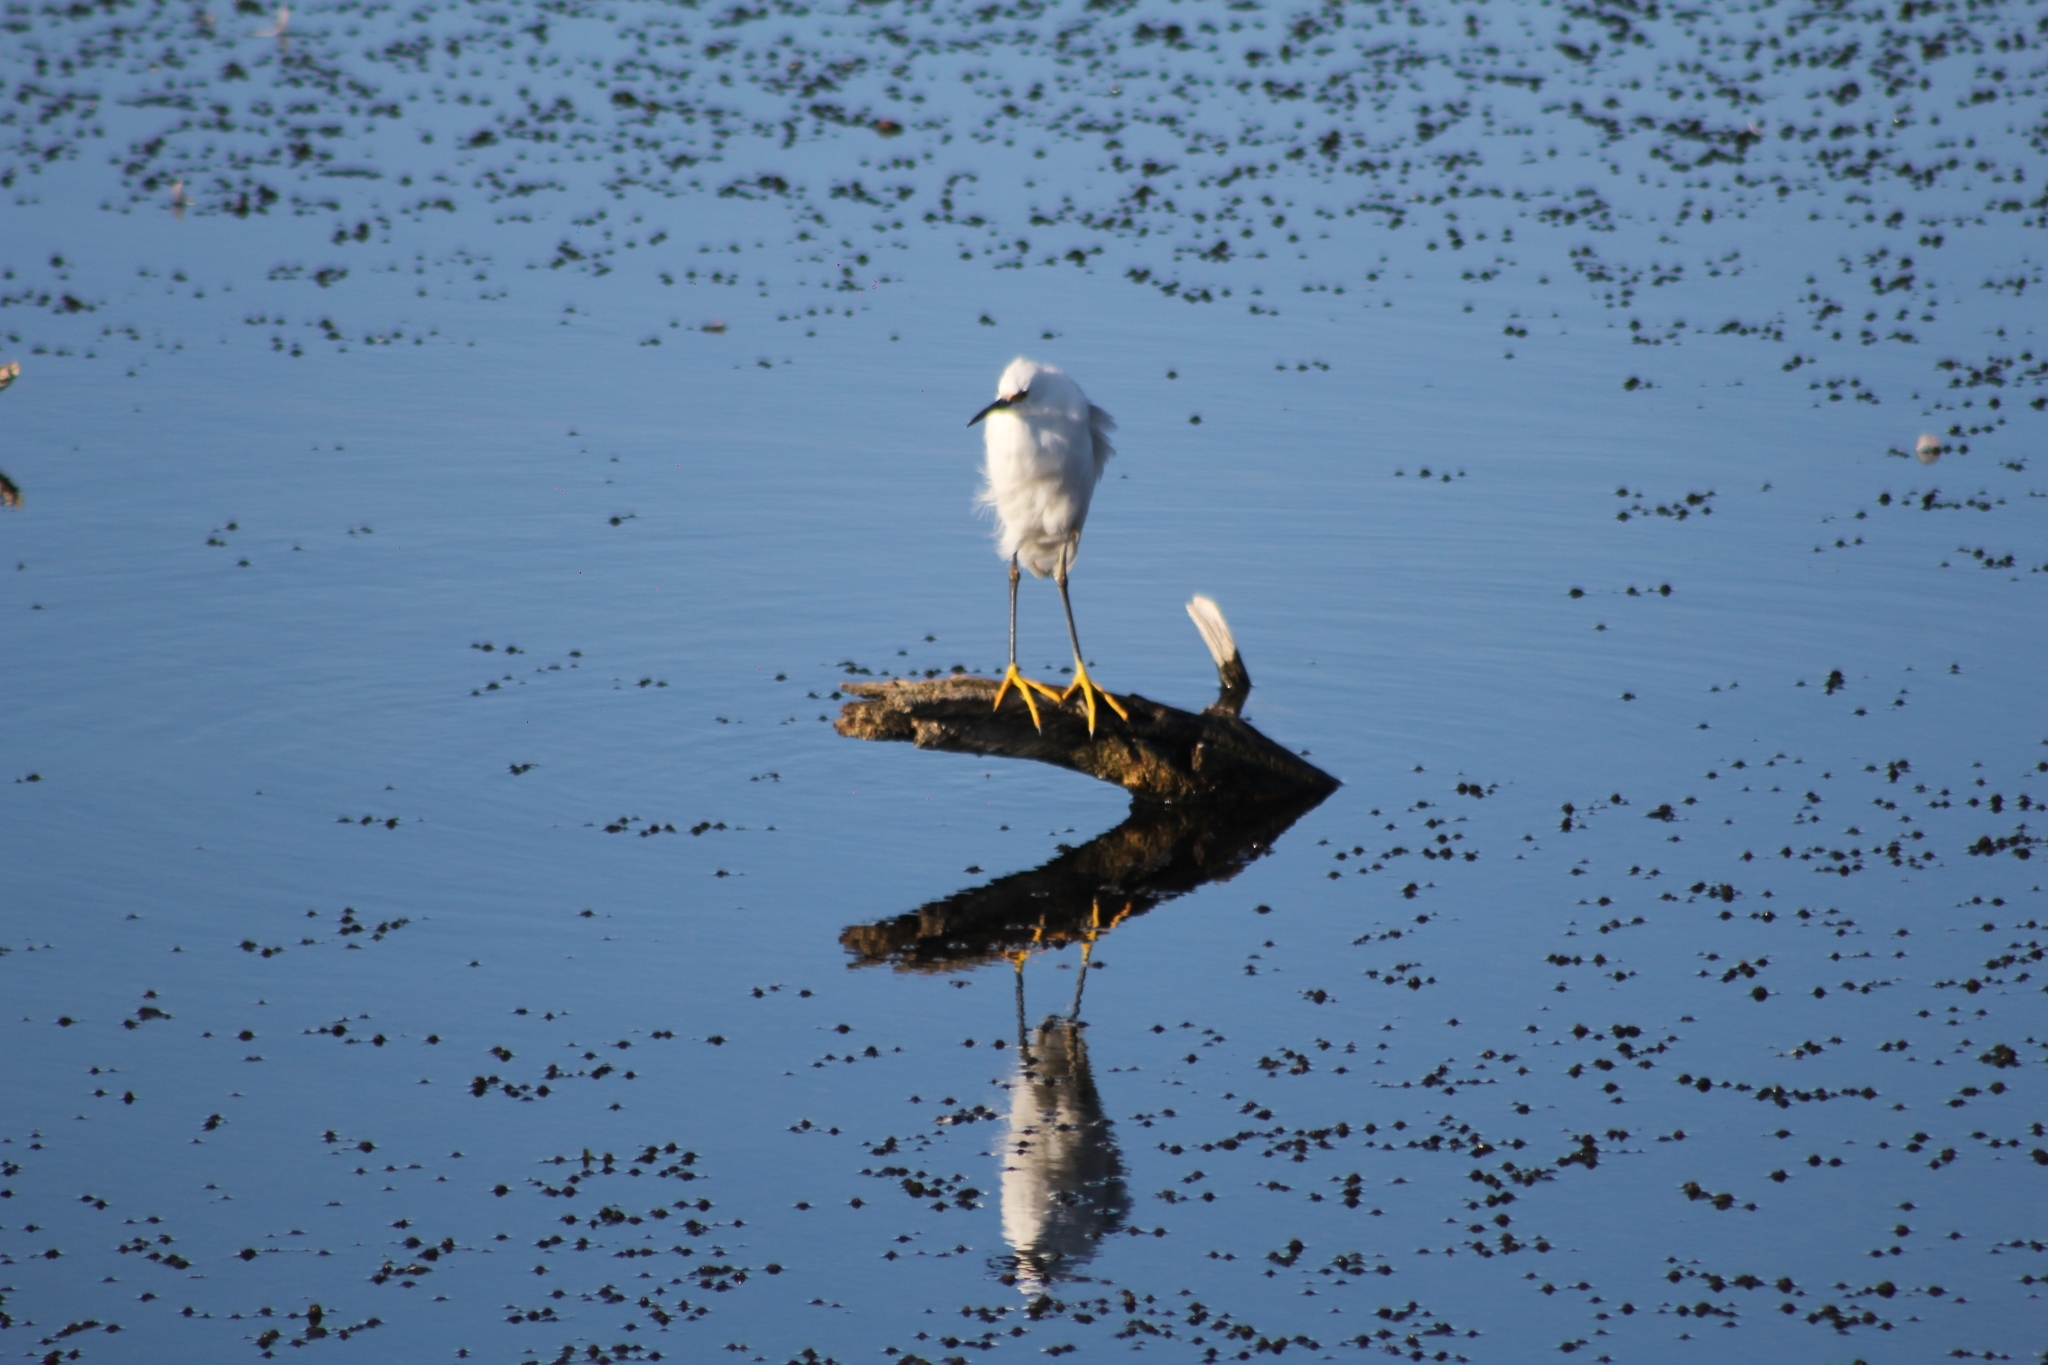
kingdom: Animalia
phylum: Chordata
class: Aves
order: Pelecaniformes
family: Ardeidae
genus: Egretta
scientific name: Egretta thula
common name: Snowy egret
